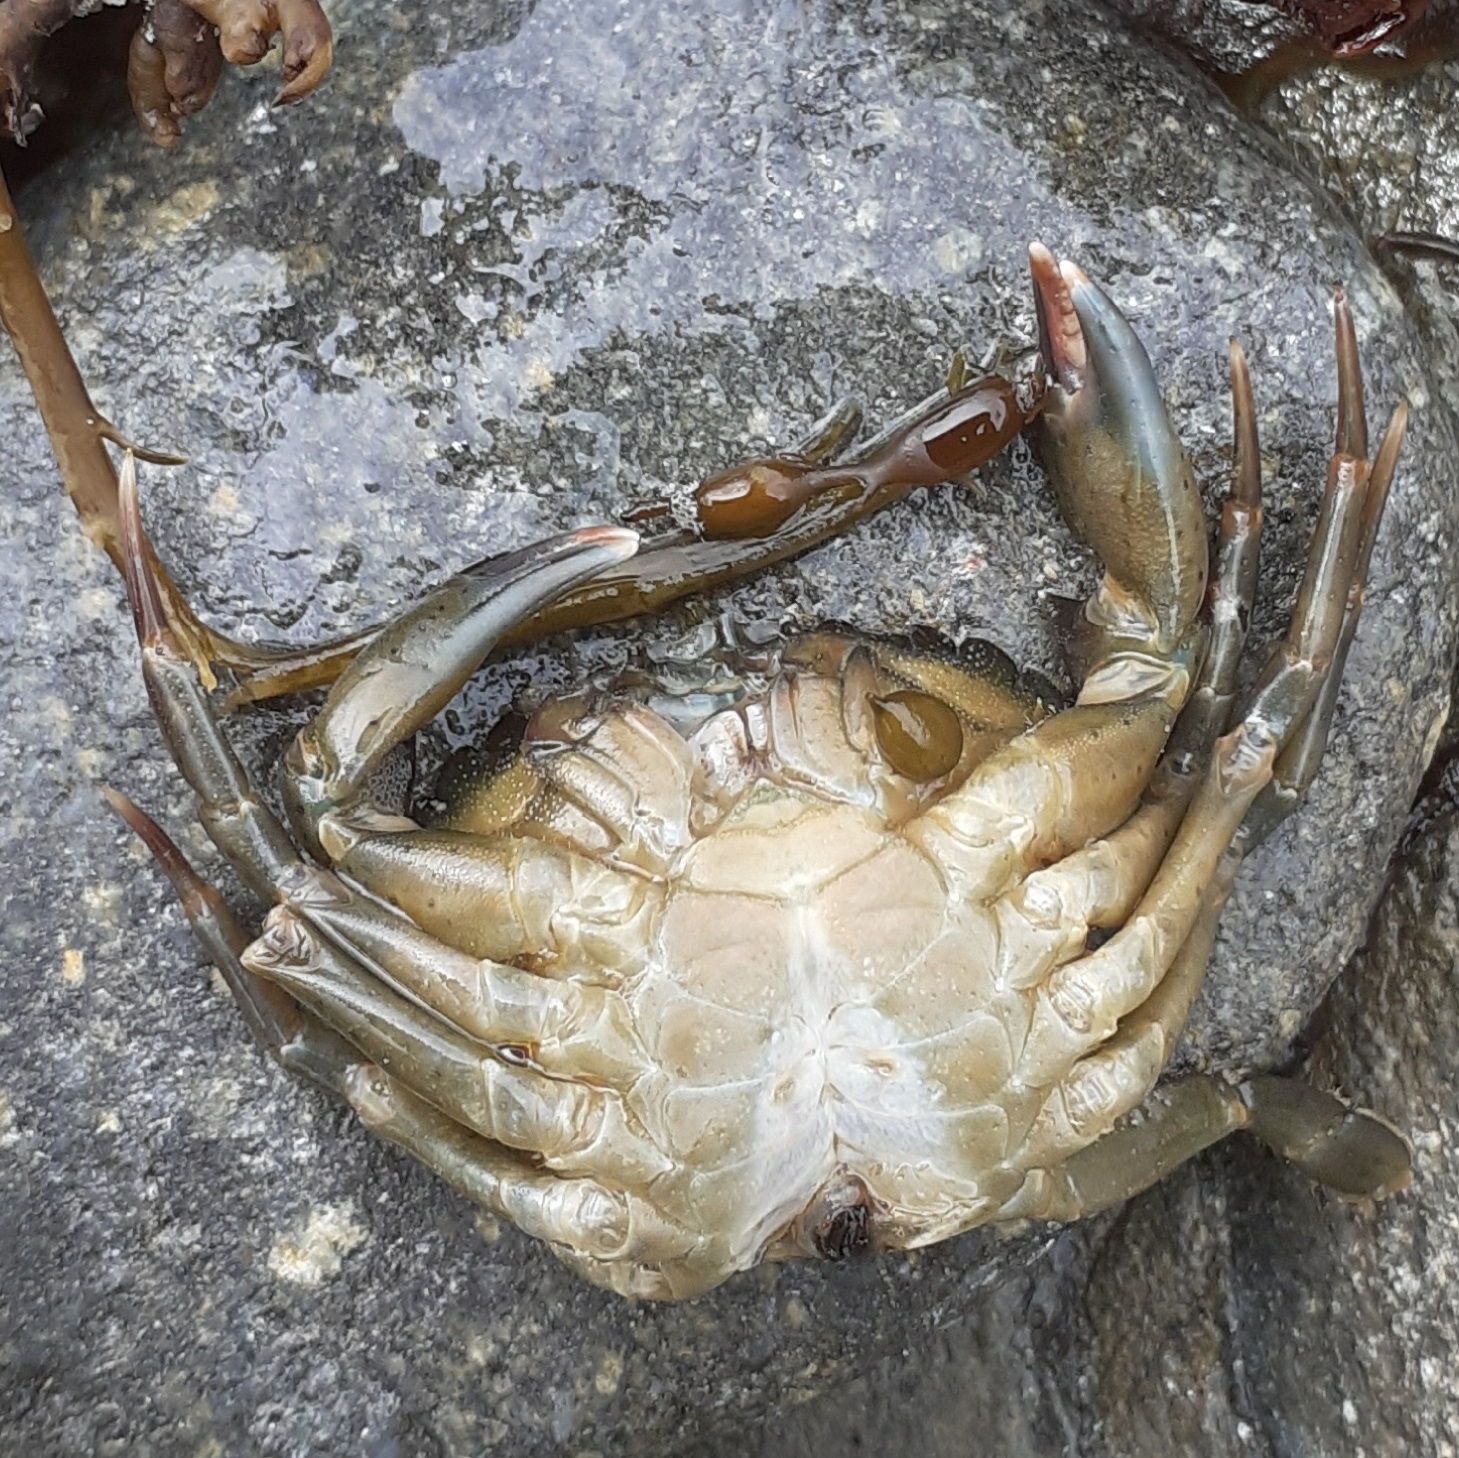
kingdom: Animalia
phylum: Arthropoda
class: Malacostraca
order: Decapoda
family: Carcinidae
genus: Carcinus
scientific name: Carcinus maenas
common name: European green crab
